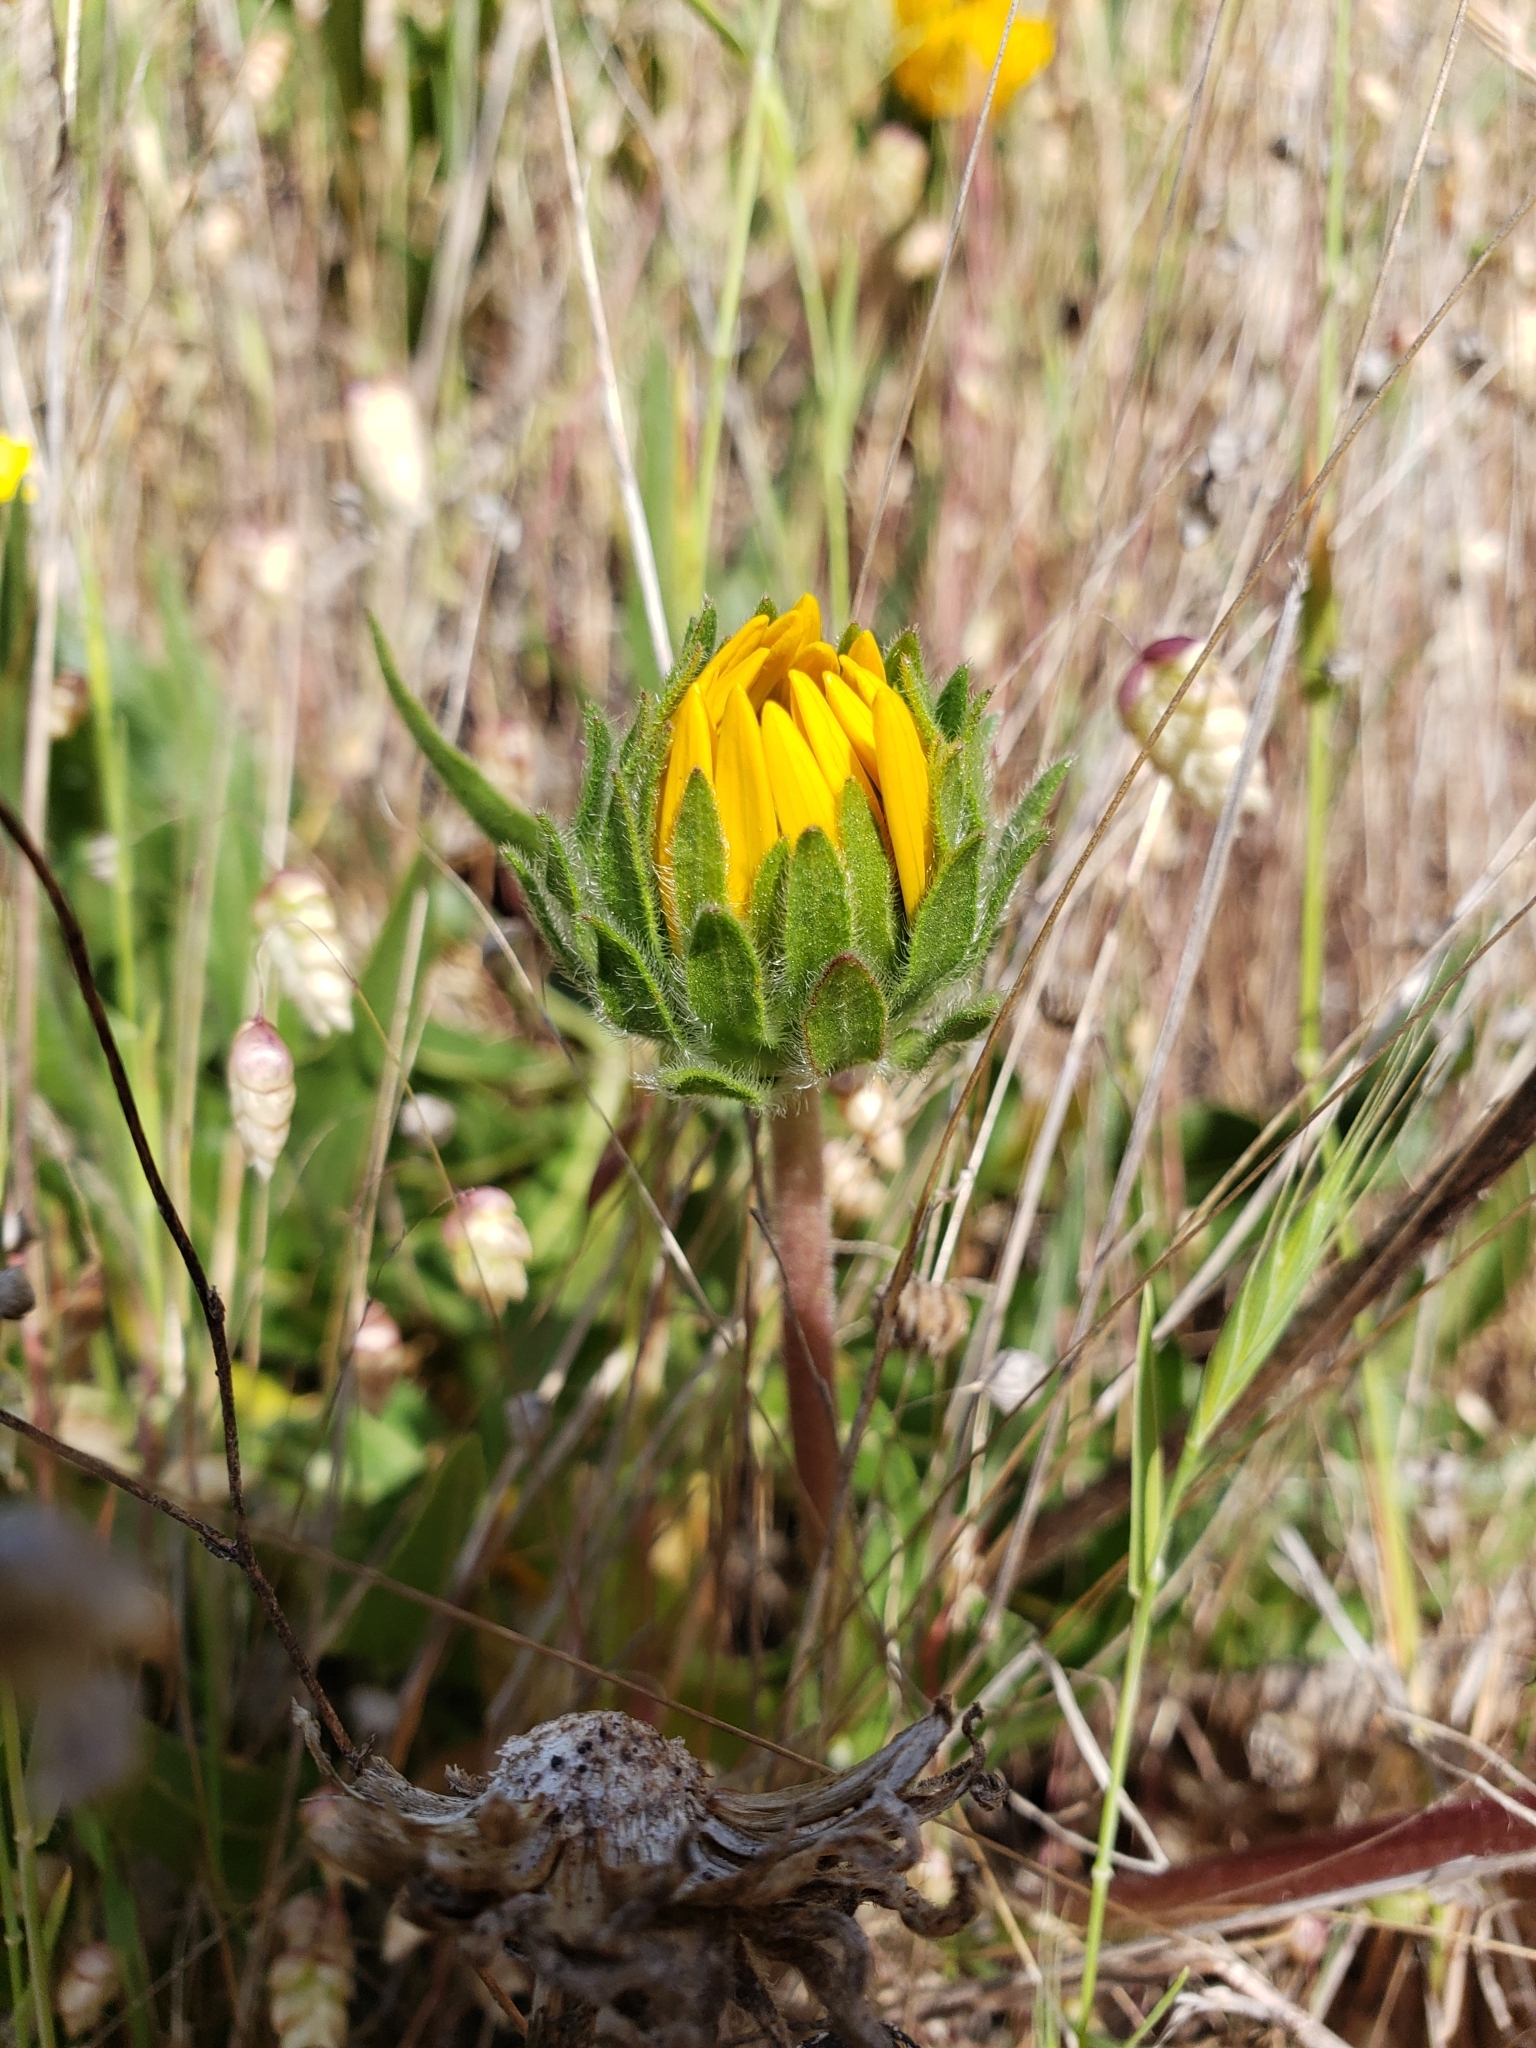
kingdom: Plantae
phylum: Tracheophyta
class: Magnoliopsida
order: Asterales
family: Asteraceae
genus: Wyethia
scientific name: Wyethia angustifolia
